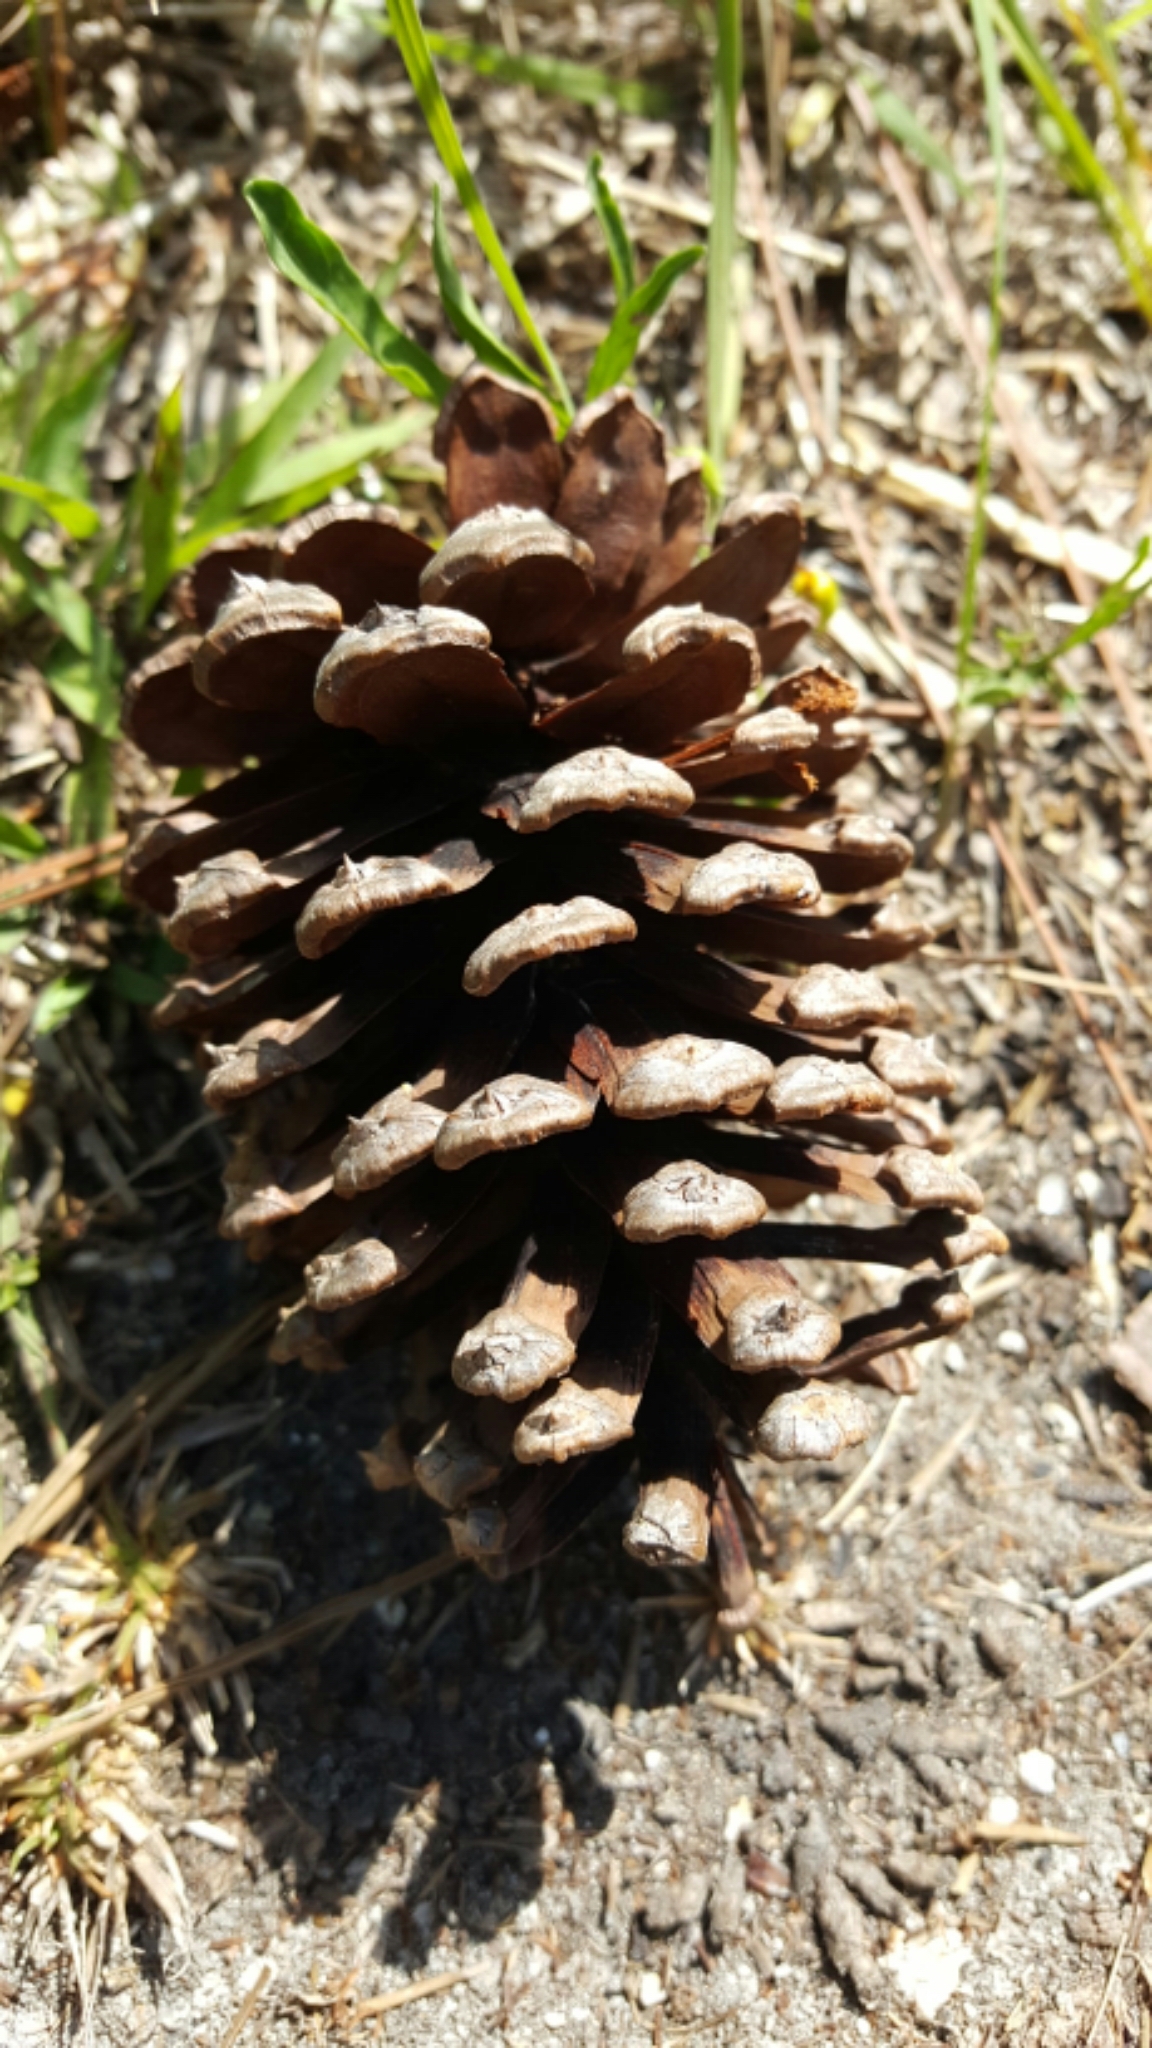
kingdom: Plantae
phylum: Tracheophyta
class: Pinopsida
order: Pinales
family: Pinaceae
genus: Pinus
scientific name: Pinus elliottii
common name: Slash pine
